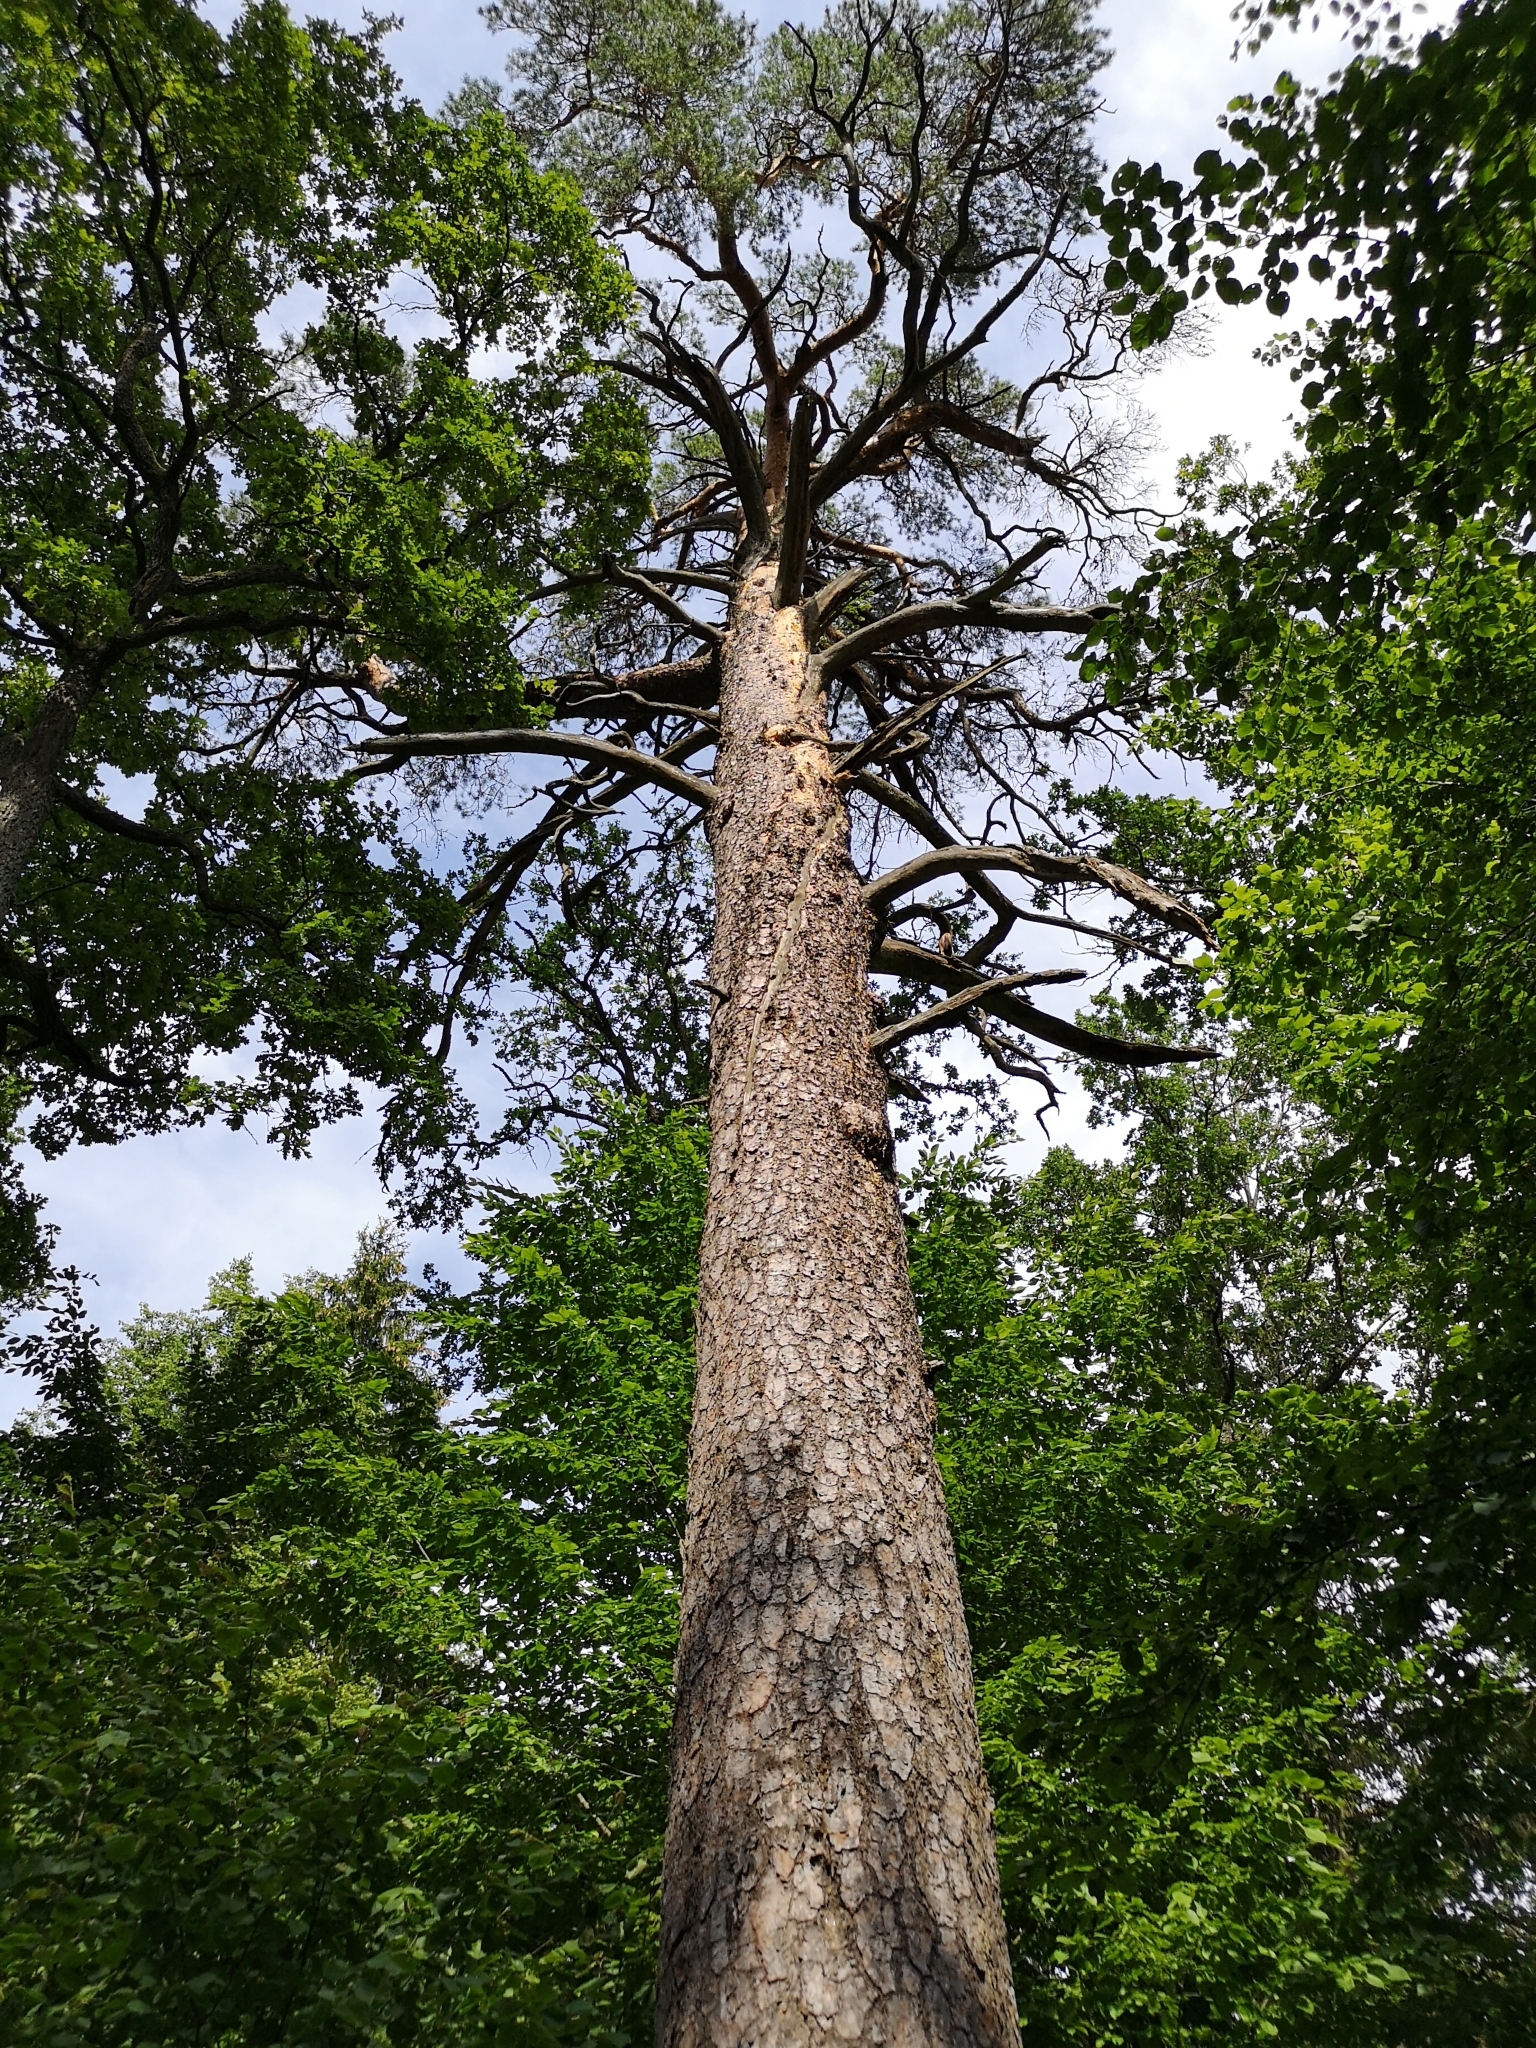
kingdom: Plantae
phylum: Tracheophyta
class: Pinopsida
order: Pinales
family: Pinaceae
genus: Pinus
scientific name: Pinus sylvestris
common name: Scots pine
